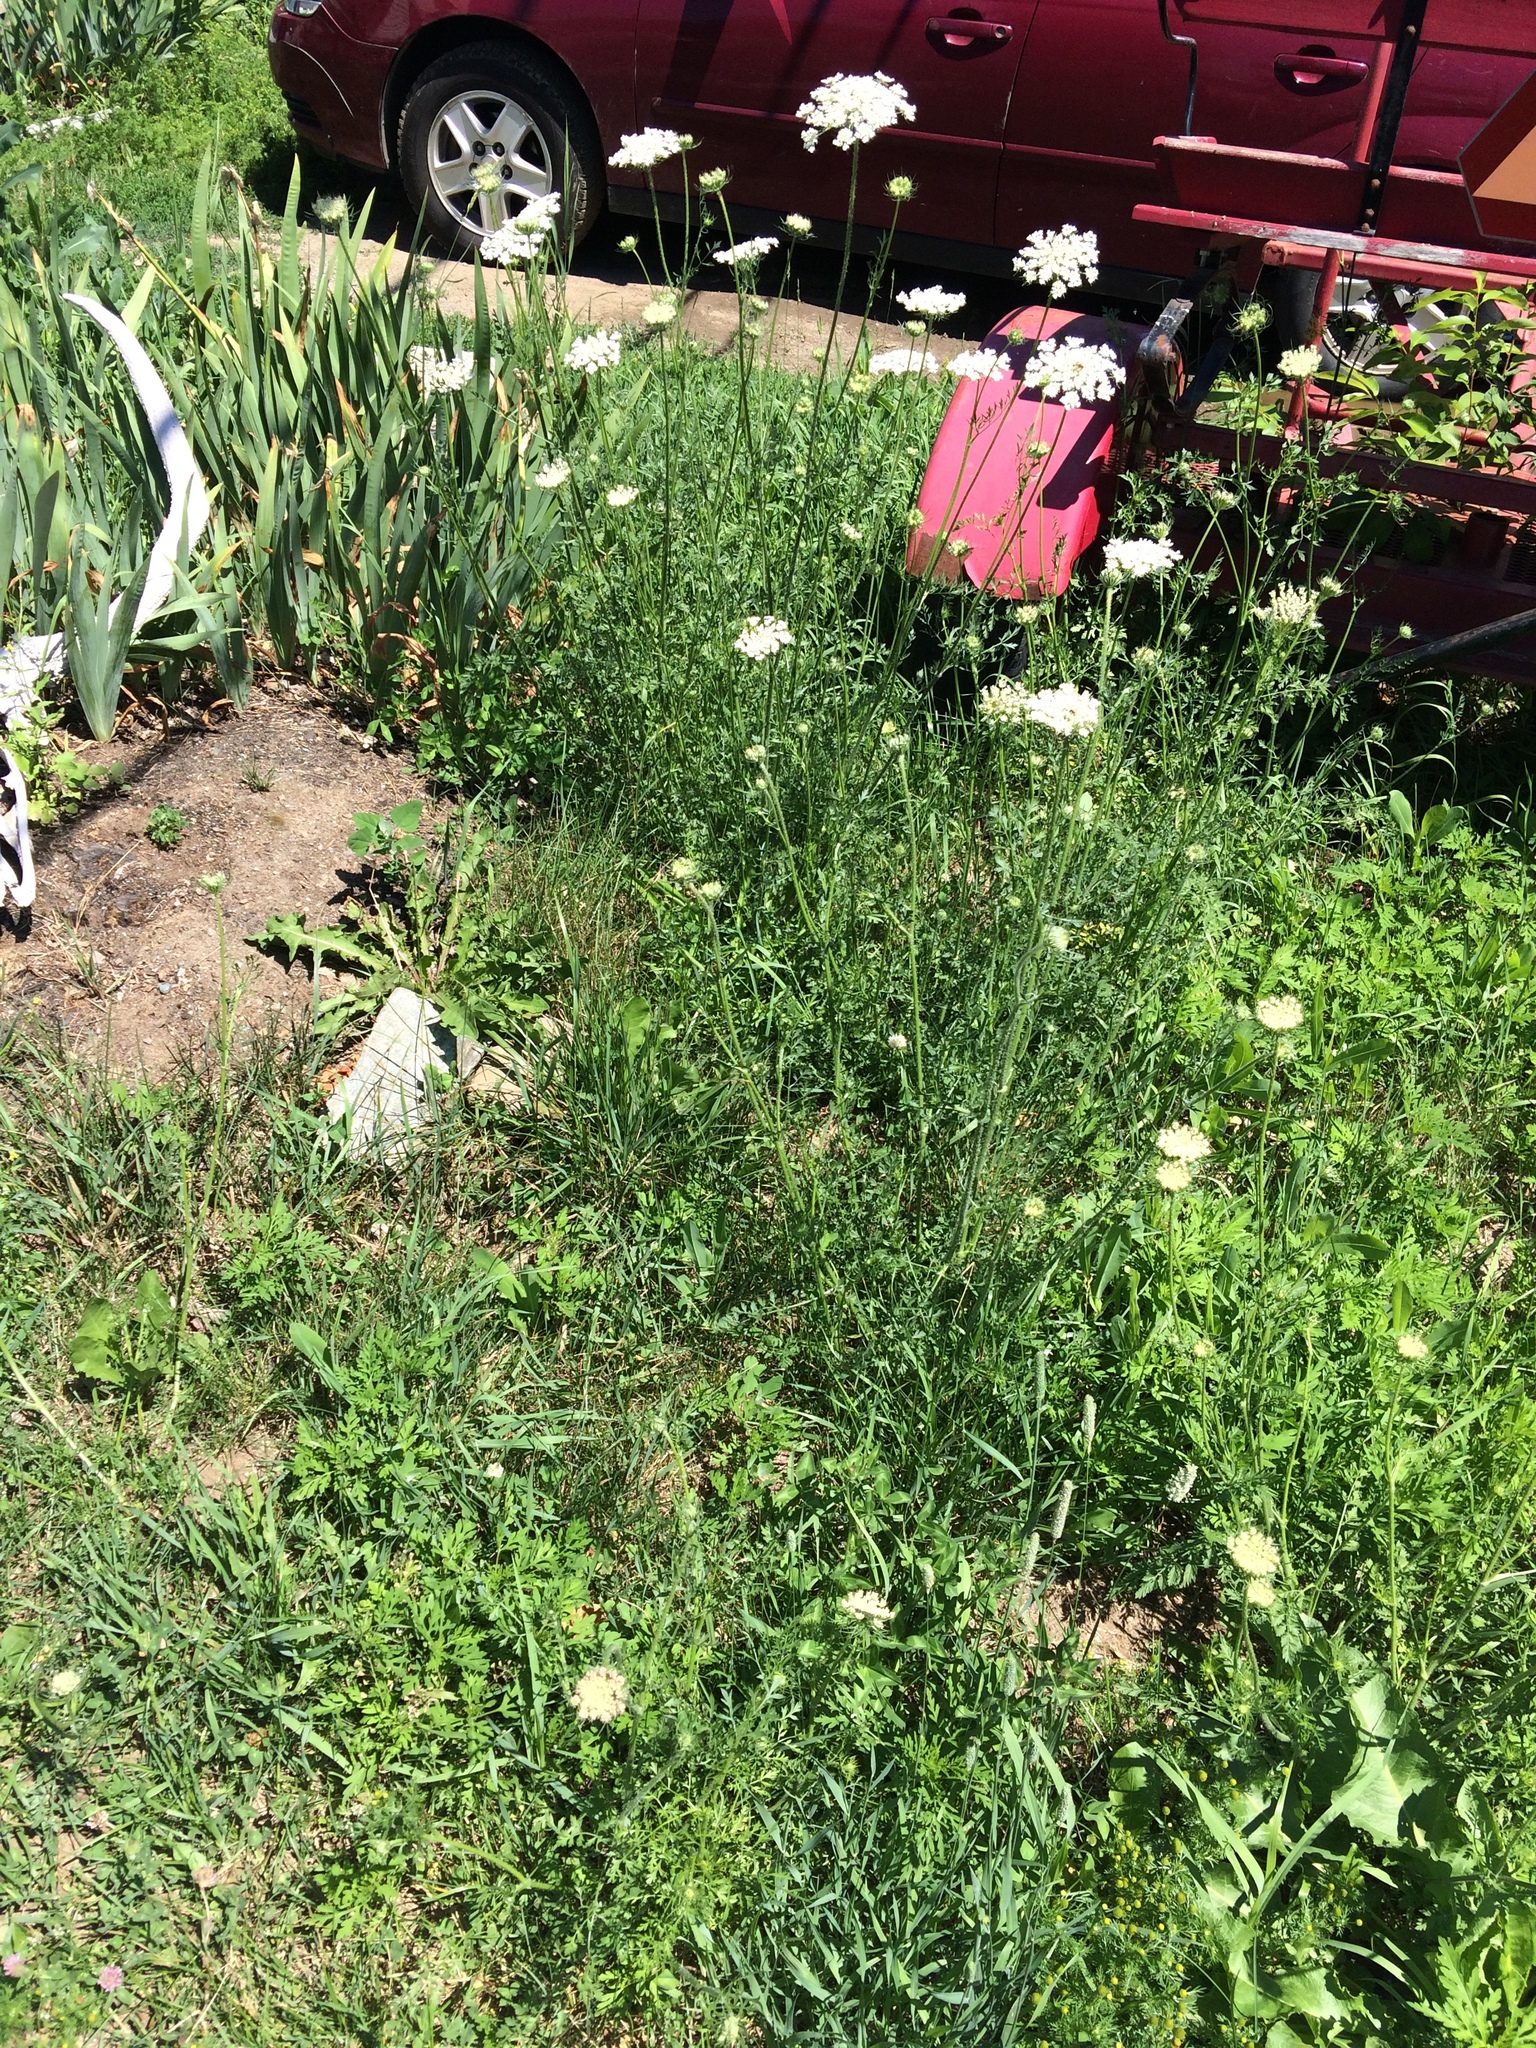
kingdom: Plantae
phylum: Tracheophyta
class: Magnoliopsida
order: Apiales
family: Apiaceae
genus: Daucus
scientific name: Daucus carota
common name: Wild carrot
